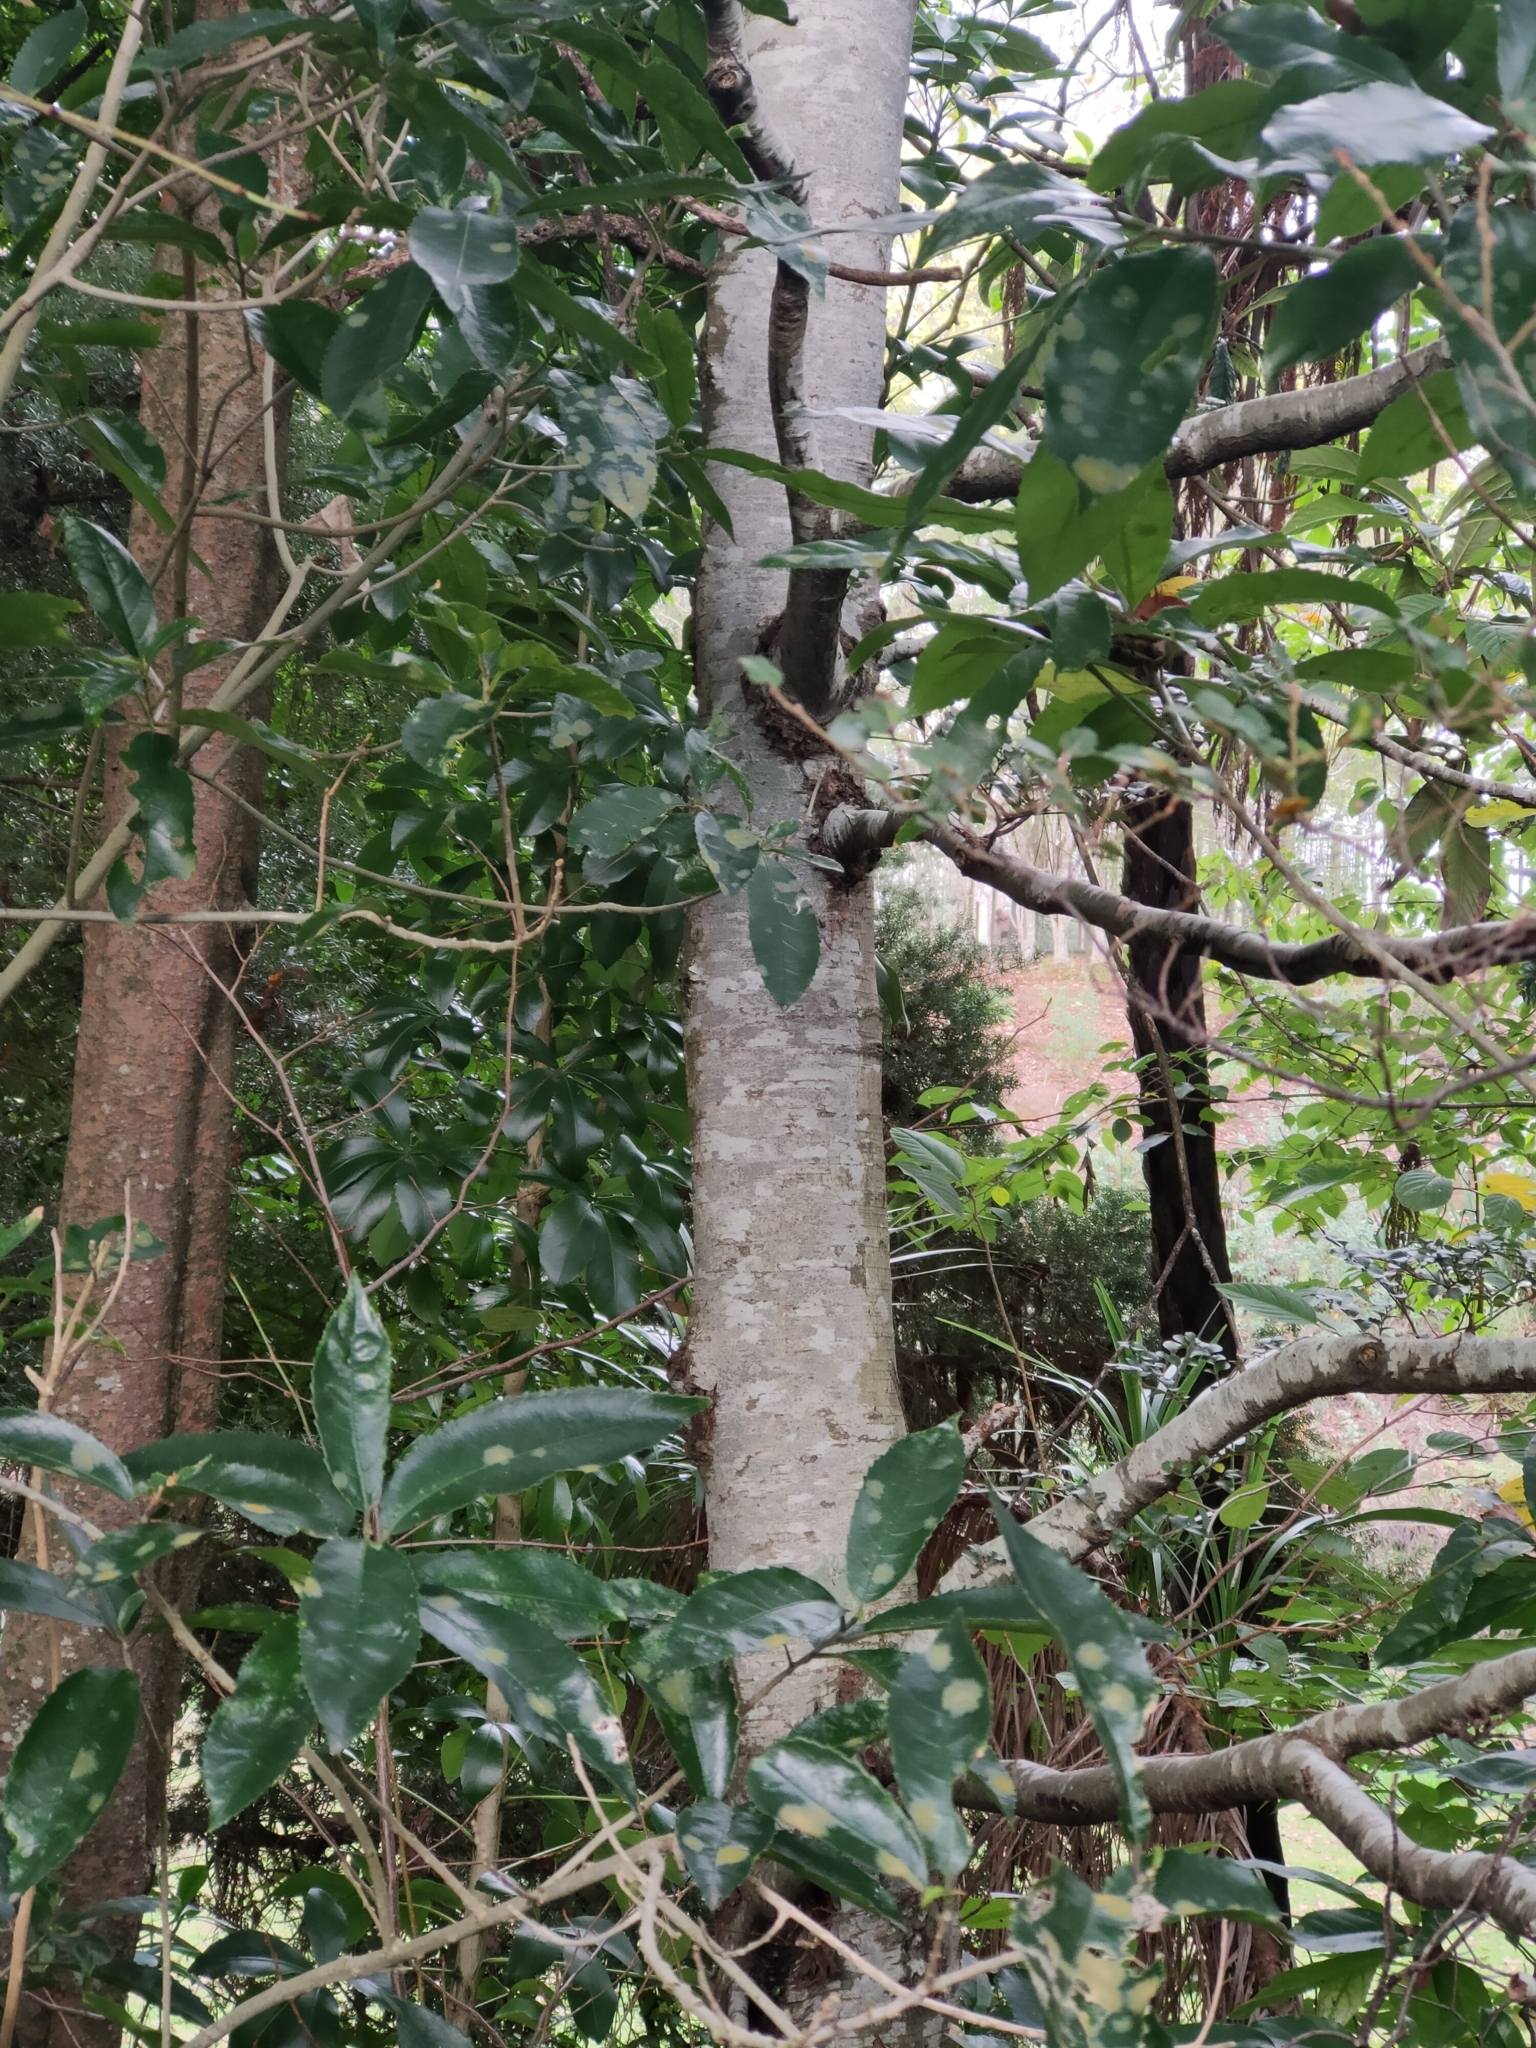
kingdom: Plantae
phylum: Tracheophyta
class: Magnoliopsida
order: Fagales
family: Nothofagaceae
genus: Nothofagus
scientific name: Nothofagus menziesii
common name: Silver beech
